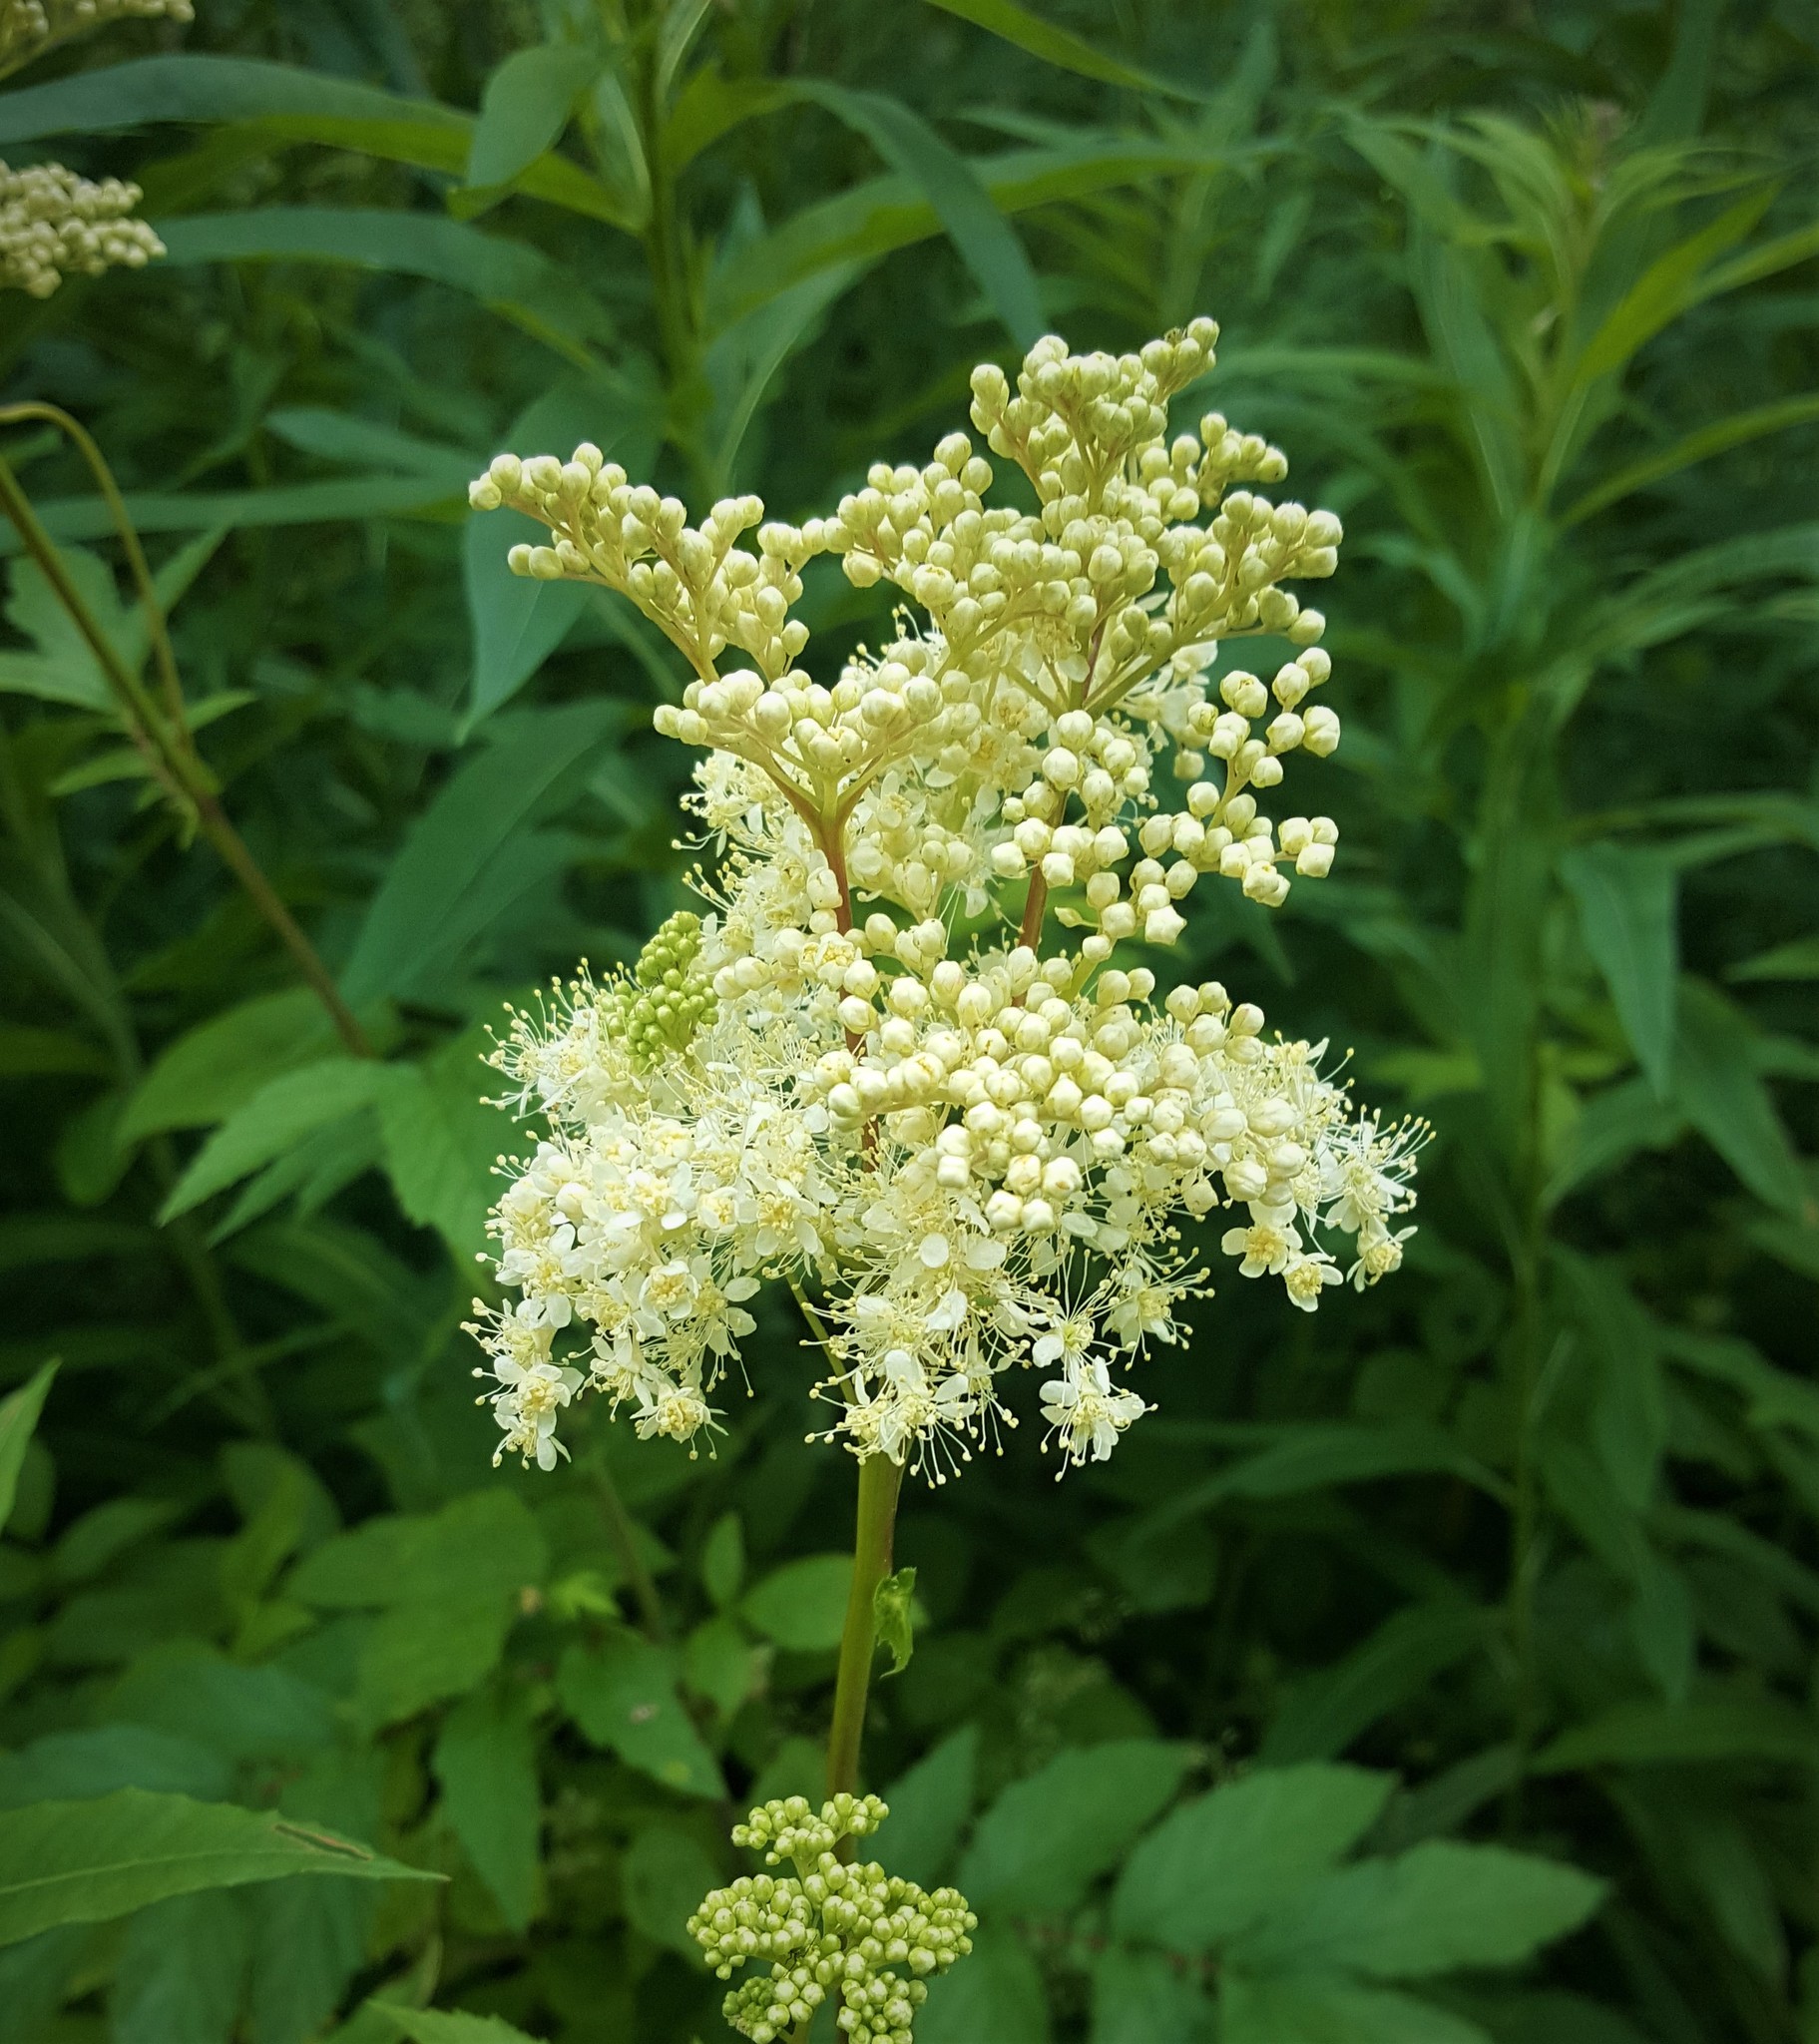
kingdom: Plantae
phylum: Tracheophyta
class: Magnoliopsida
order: Rosales
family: Rosaceae
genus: Filipendula
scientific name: Filipendula ulmaria
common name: Meadowsweet
